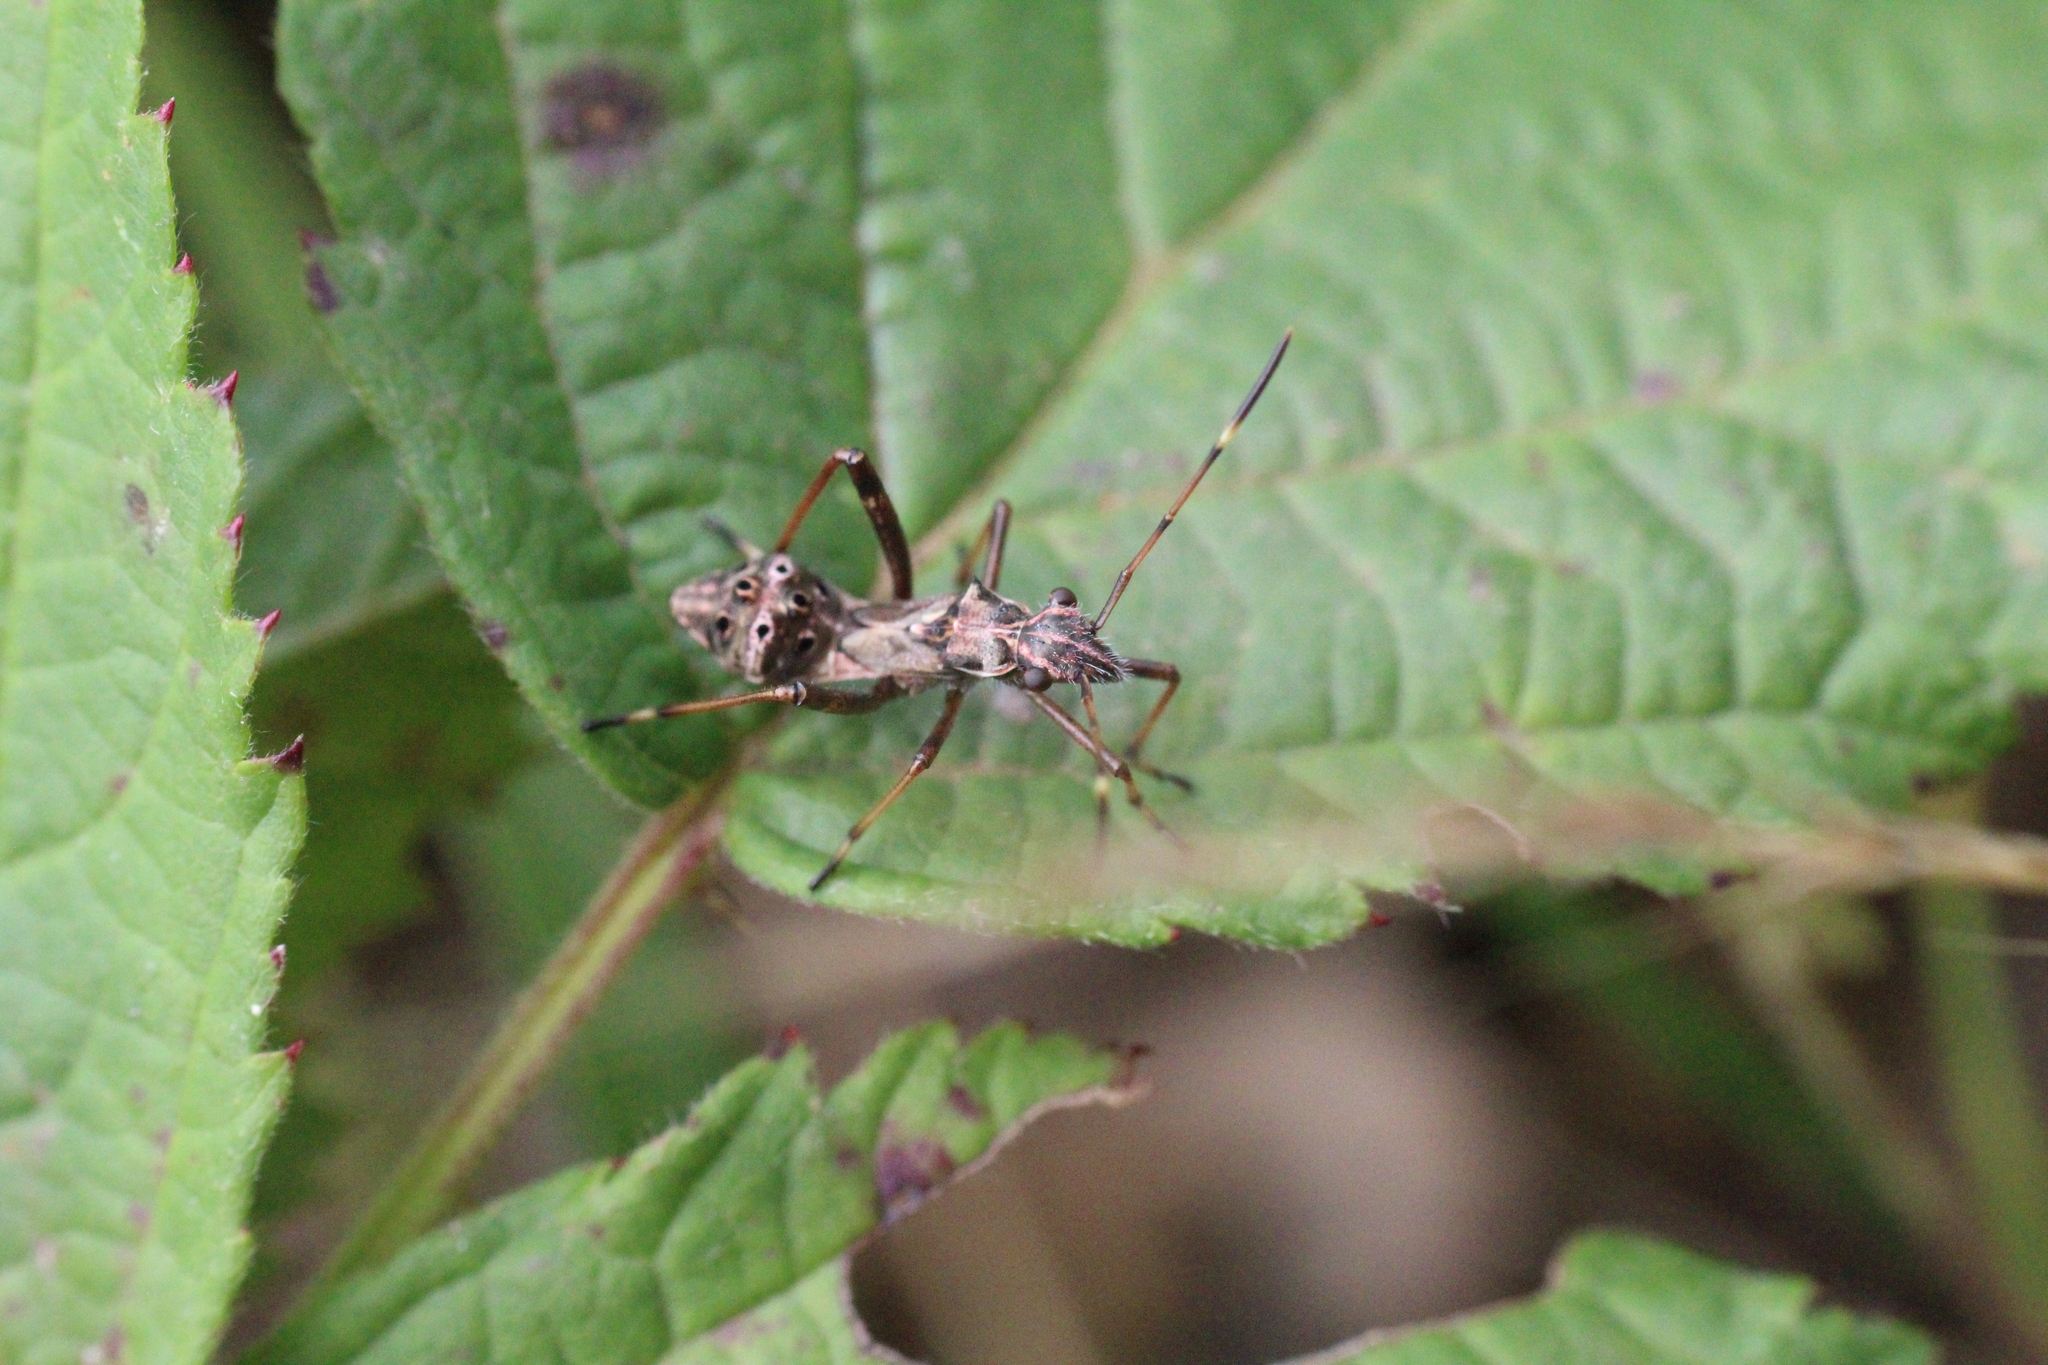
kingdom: Animalia
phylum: Arthropoda
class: Insecta
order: Hemiptera
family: Alydidae
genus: Camptopus
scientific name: Camptopus lateralis
